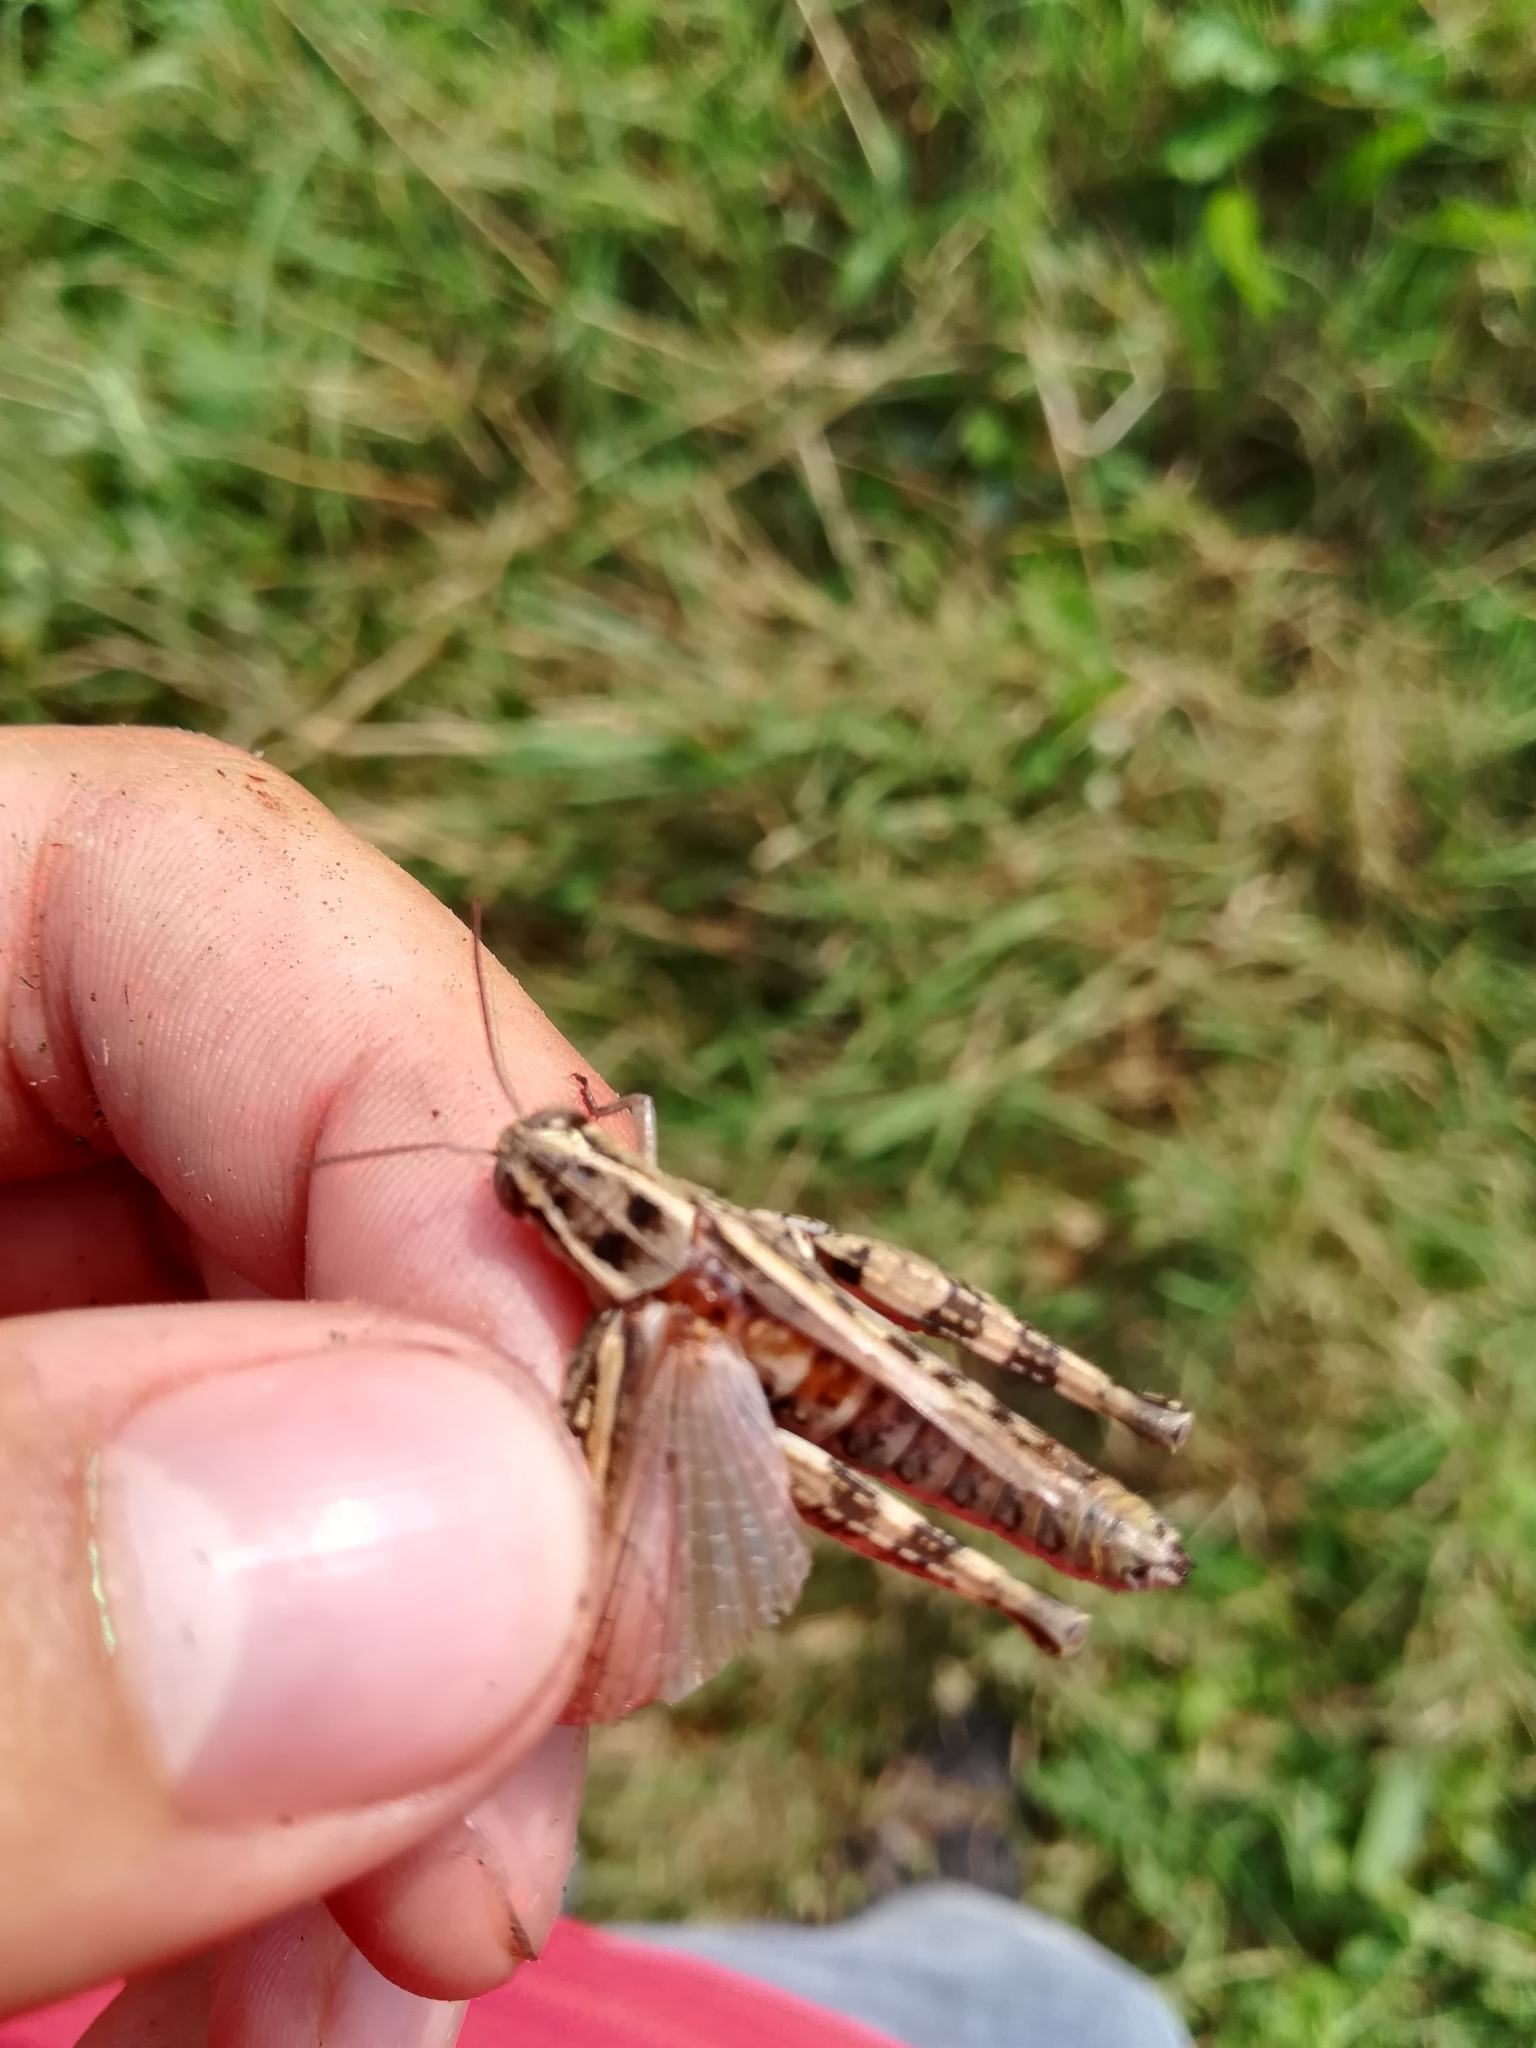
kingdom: Animalia
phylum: Arthropoda
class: Insecta
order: Orthoptera
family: Acrididae
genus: Calliptamus
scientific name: Calliptamus siciliae
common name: Pygmy pincer grasshopper
